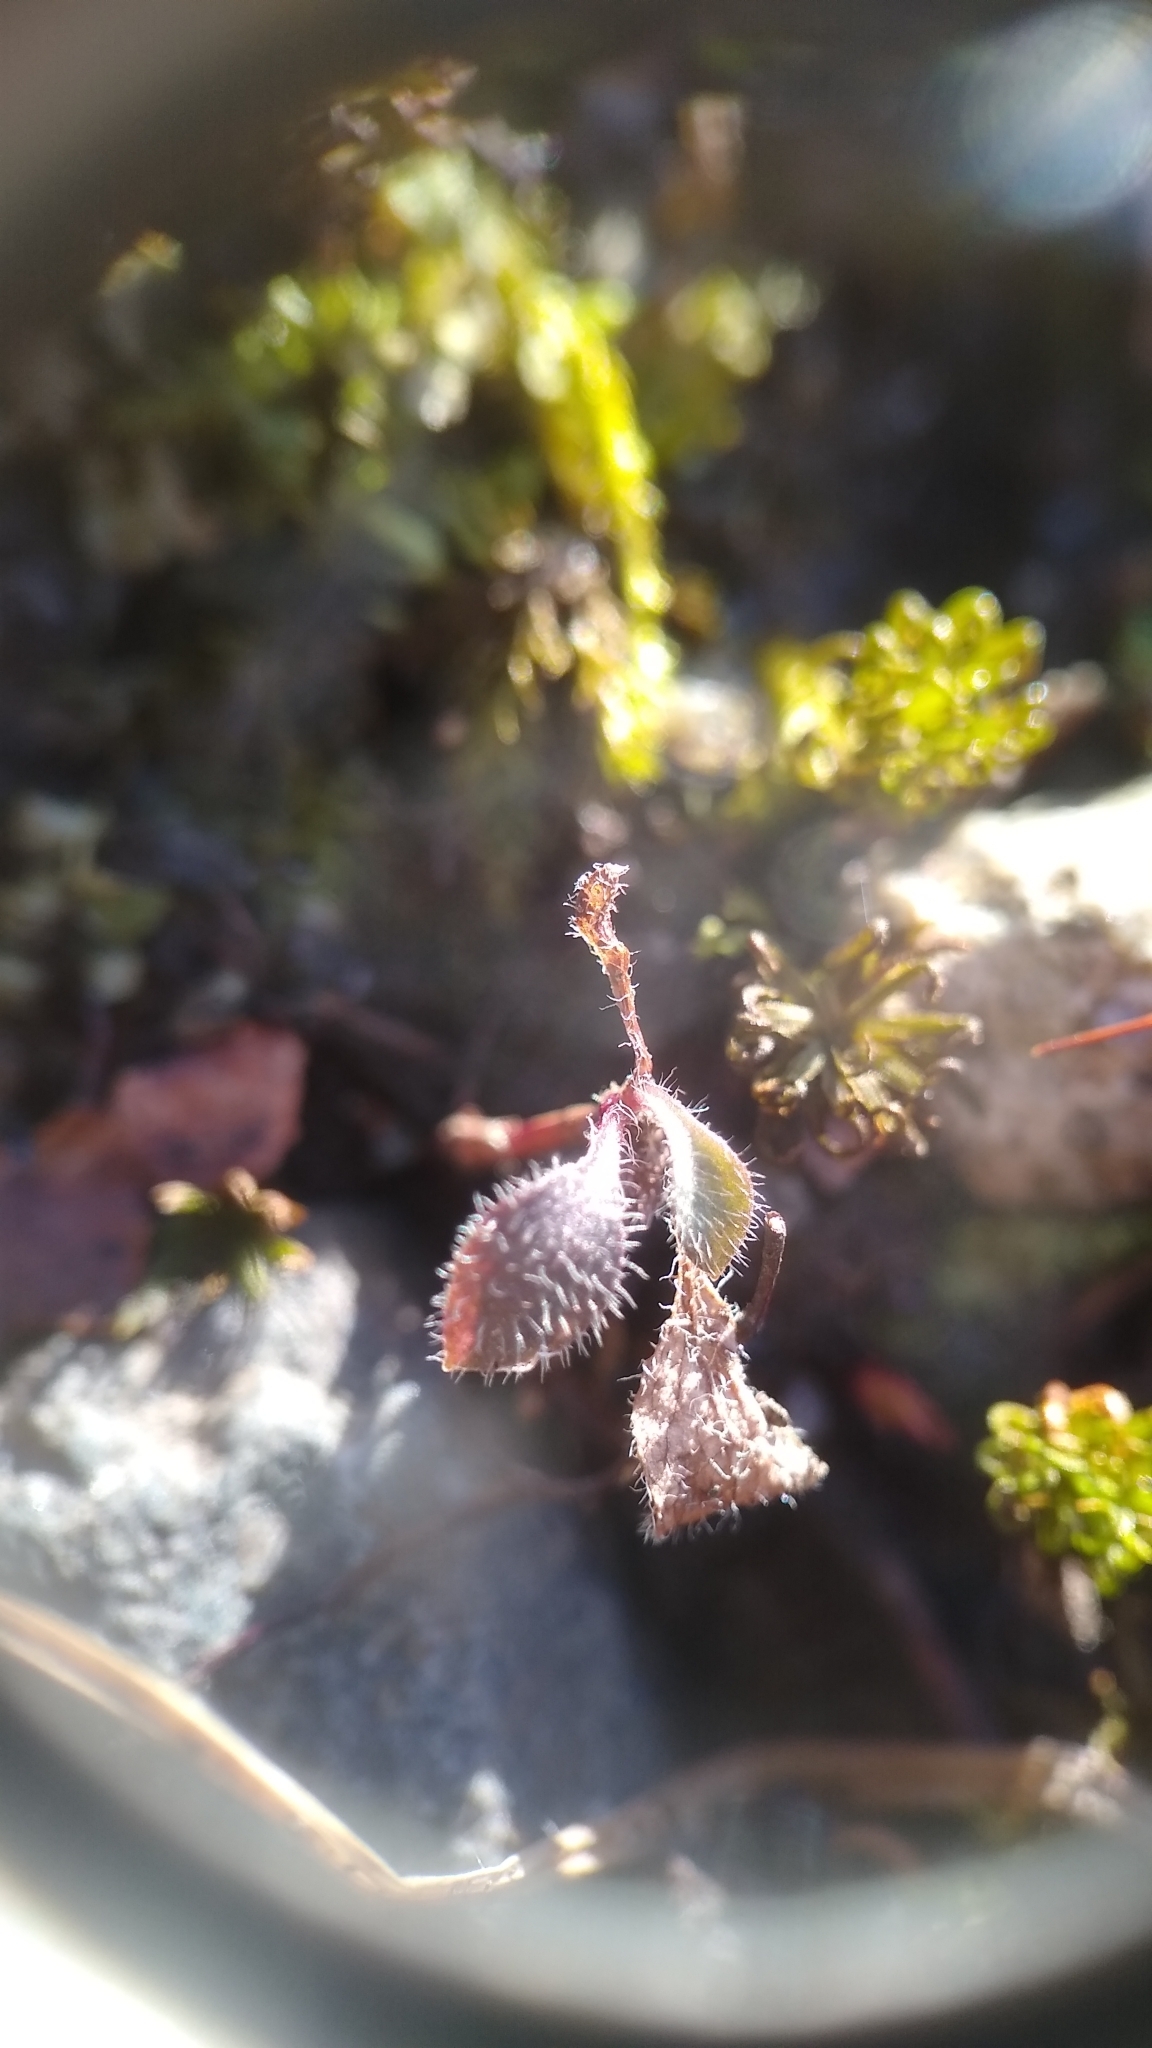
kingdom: Plantae
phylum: Tracheophyta
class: Magnoliopsida
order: Asterales
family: Asteraceae
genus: Pilosella
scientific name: Pilosella officinarum
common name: Mouse-ear hawkweed
